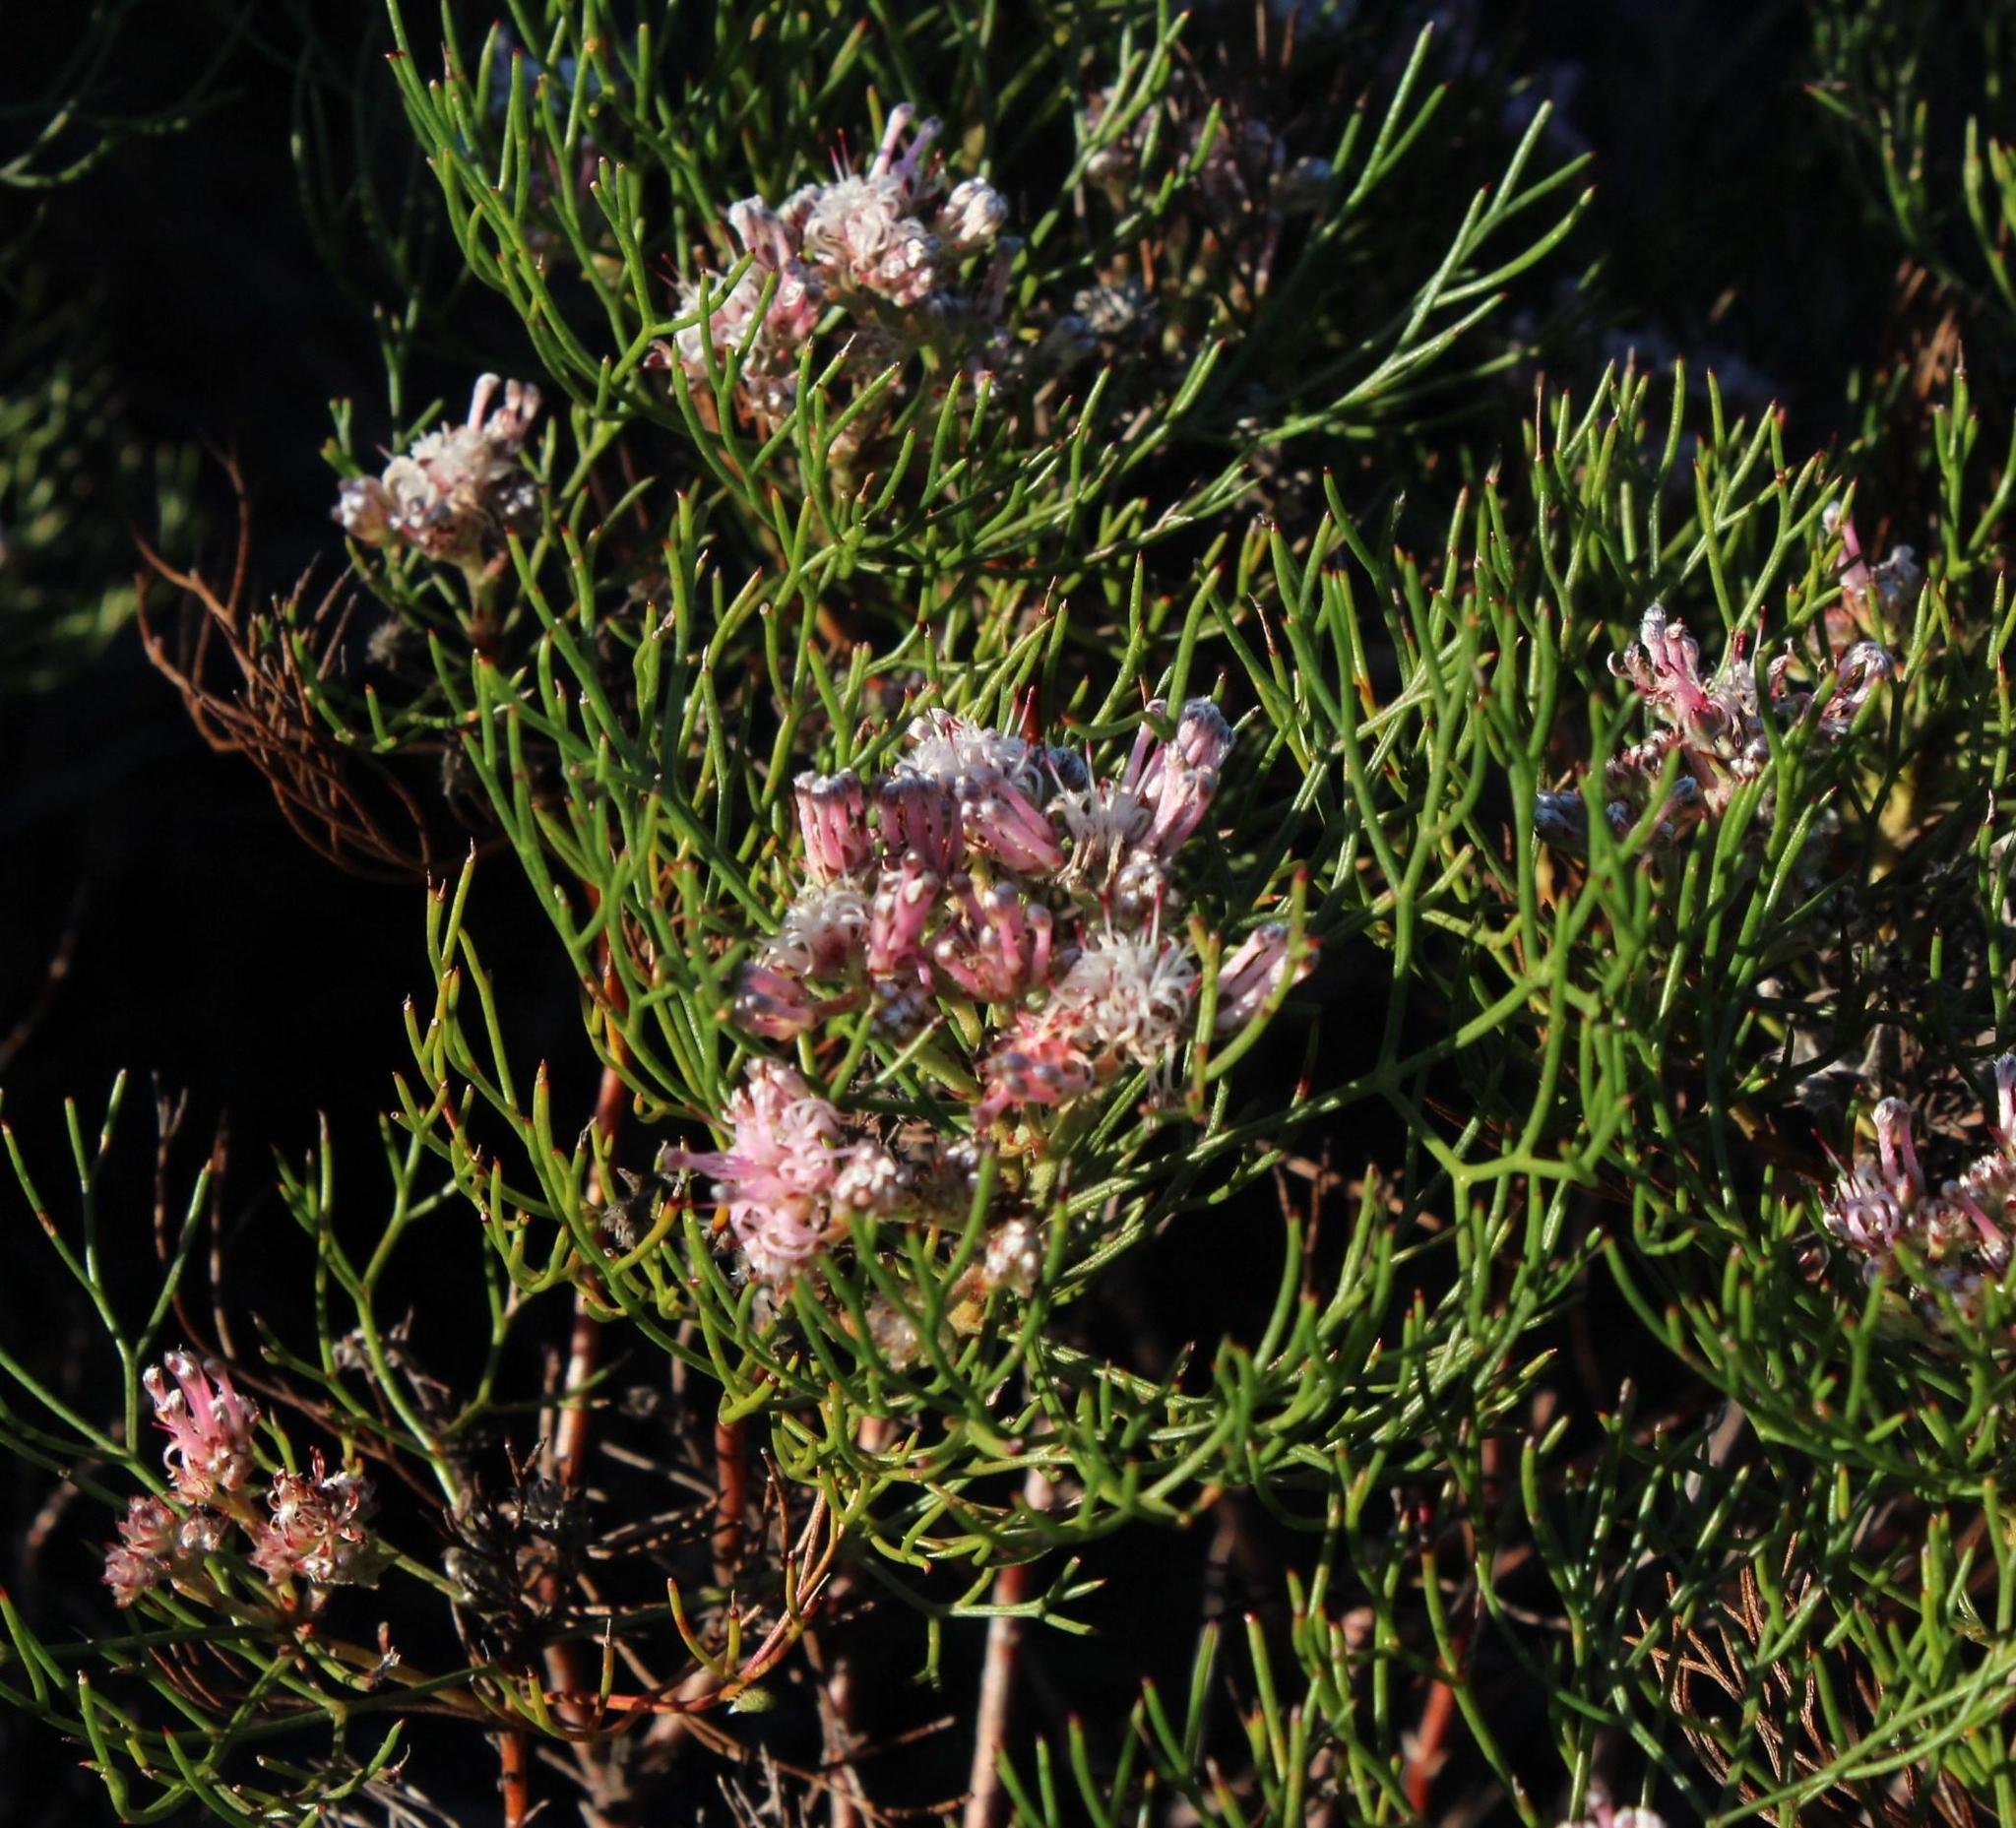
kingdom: Plantae
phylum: Tracheophyta
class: Magnoliopsida
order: Proteales
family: Proteaceae
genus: Serruria
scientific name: Serruria fasciflora
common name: Common pin spiderhead
